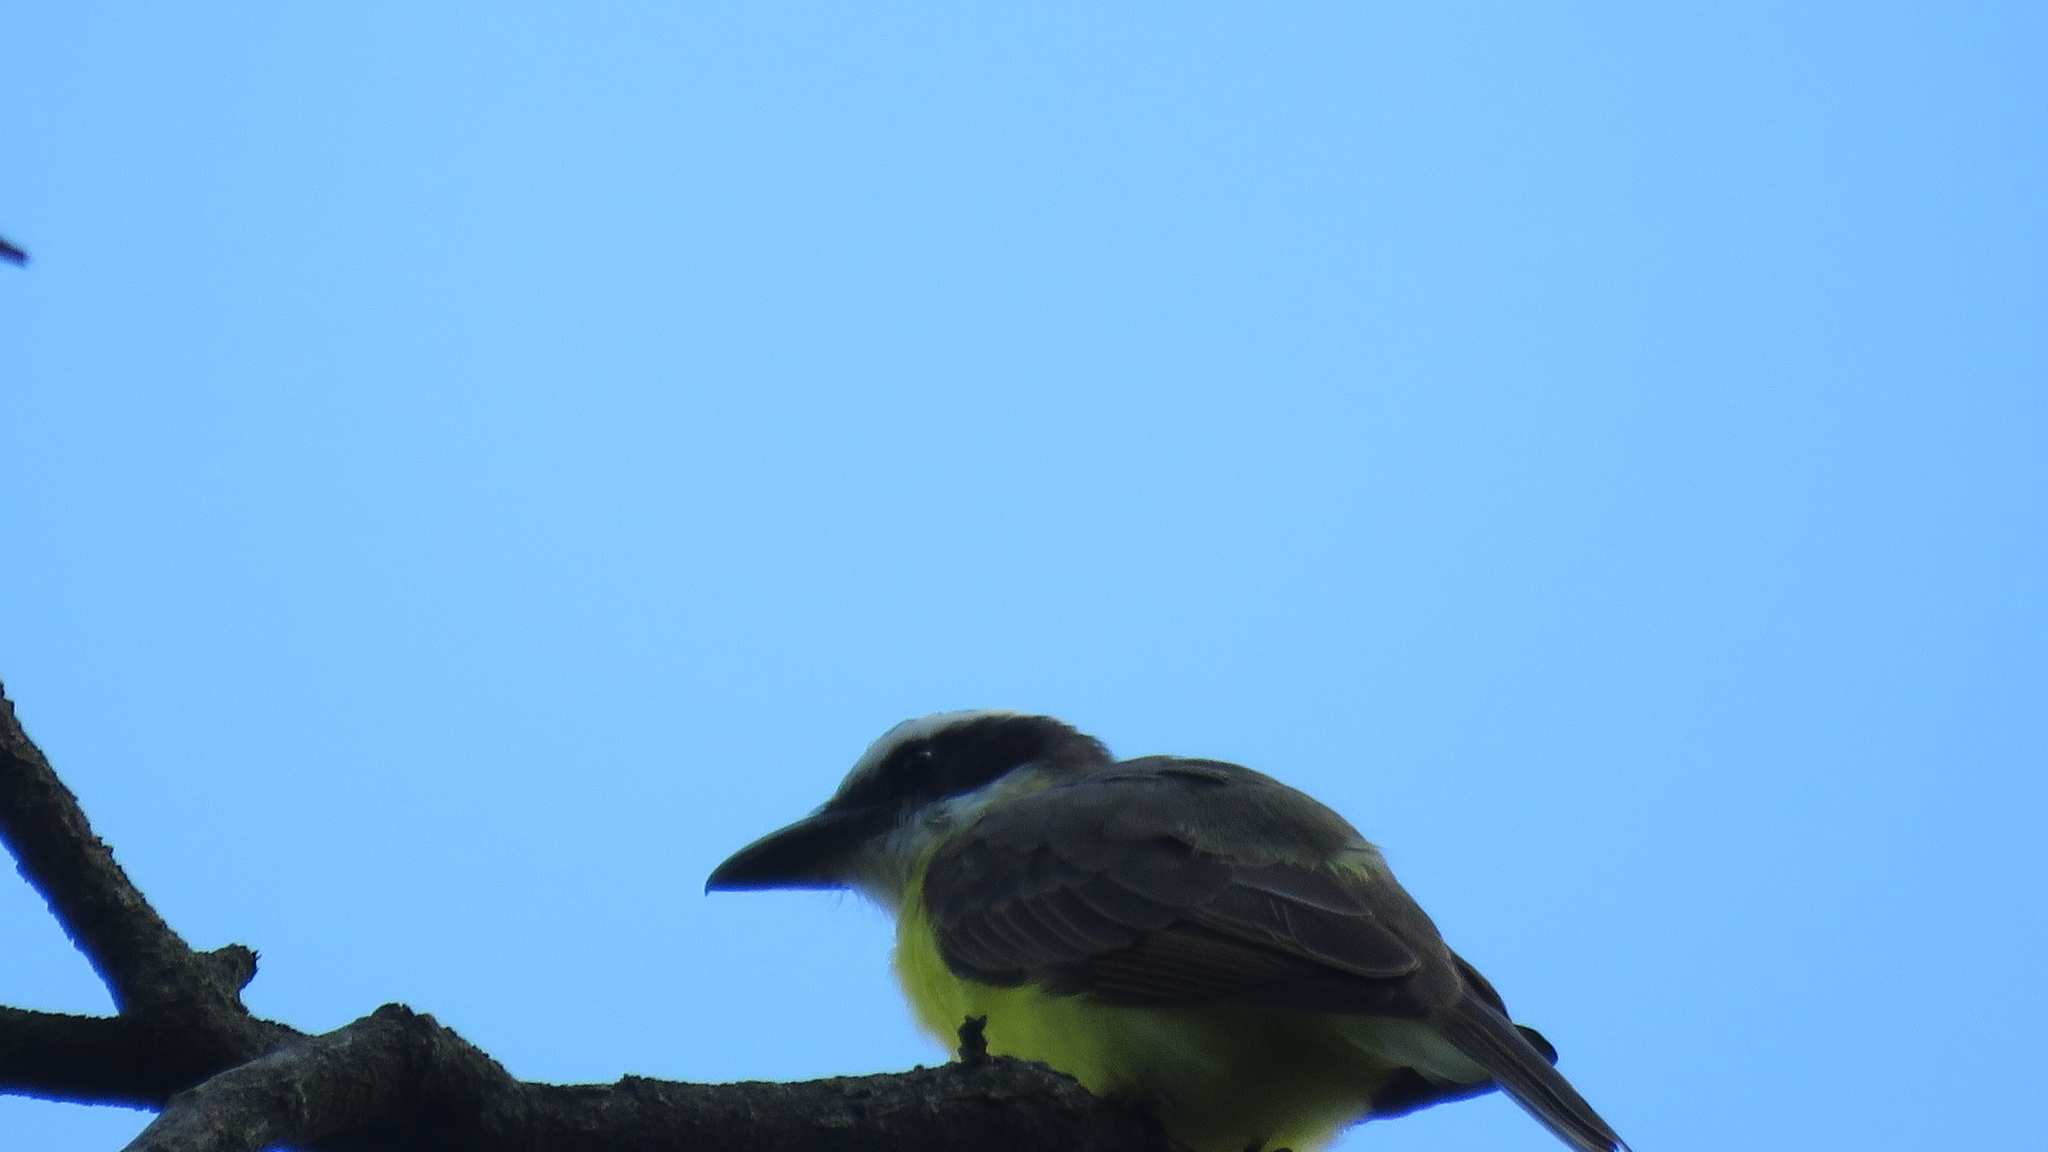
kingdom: Animalia
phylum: Chordata
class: Aves
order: Passeriformes
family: Tyrannidae
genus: Megarynchus
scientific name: Megarynchus pitangua
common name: Boat-billed flycatcher
